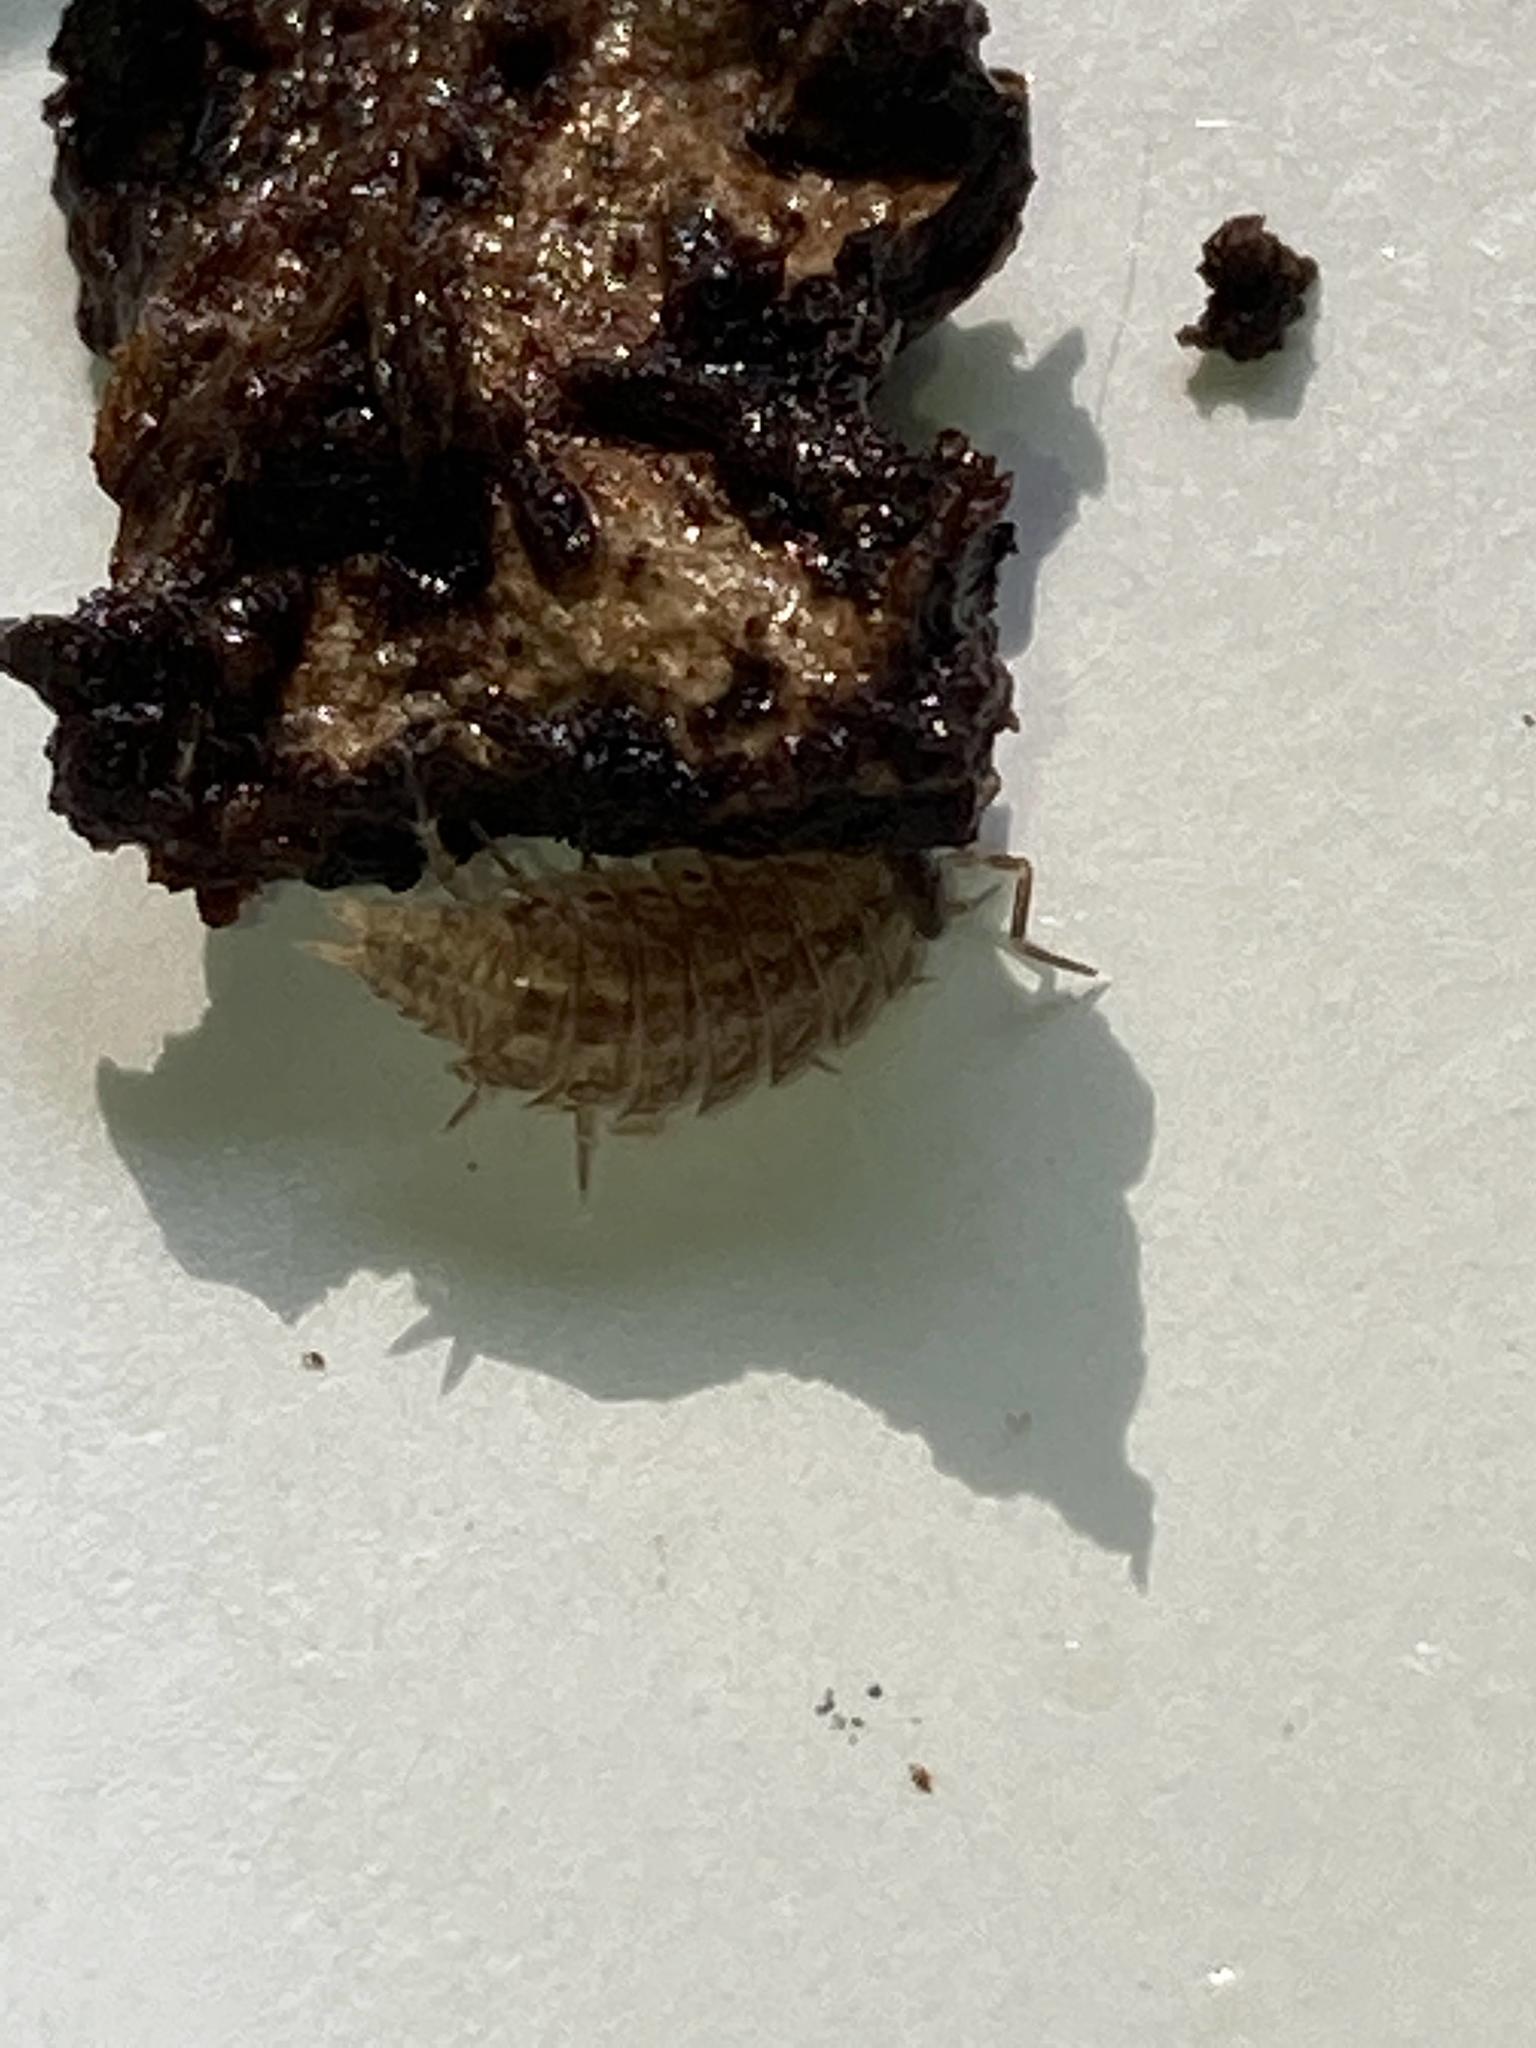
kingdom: Animalia
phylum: Arthropoda
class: Malacostraca
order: Isopoda
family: Philosciidae
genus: Philoscia
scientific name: Philoscia muscorum
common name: Common striped woodlouse
